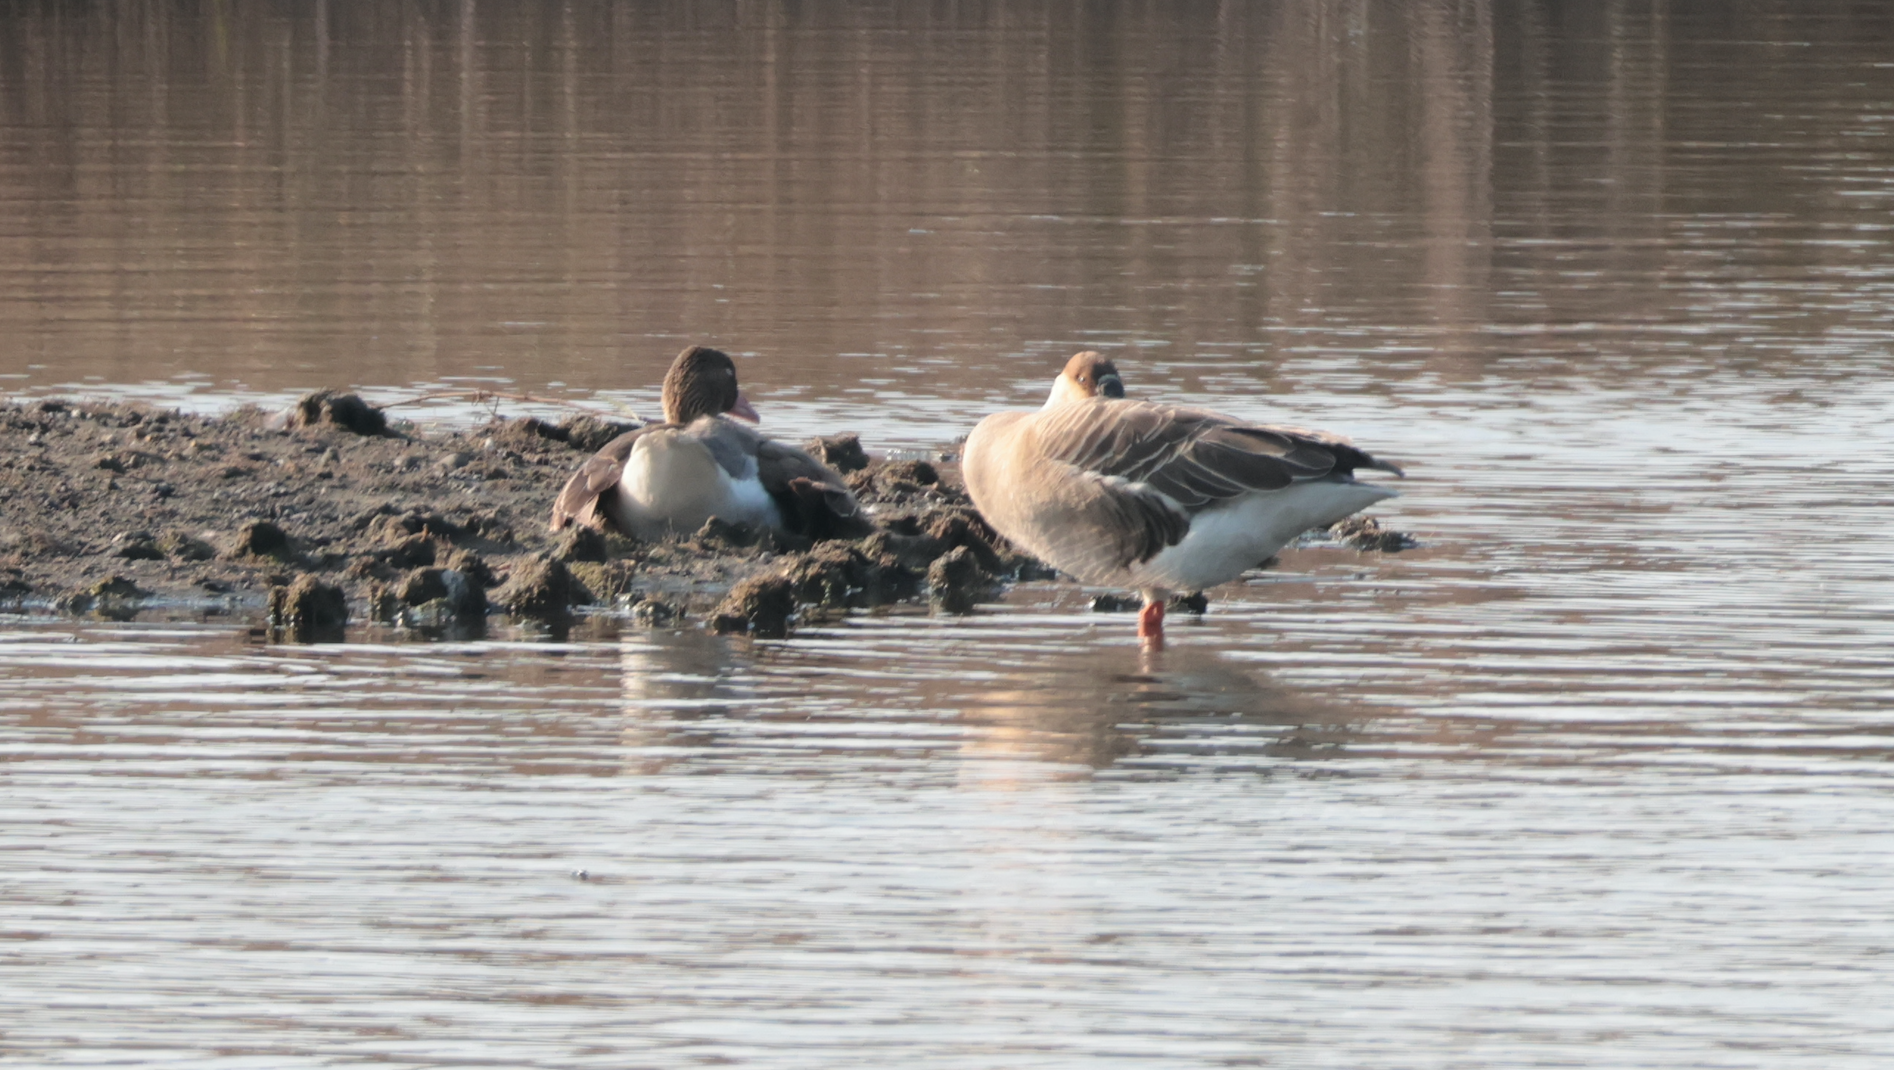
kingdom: Animalia
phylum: Chordata
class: Aves
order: Anseriformes
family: Anatidae
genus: Anser
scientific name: Anser anser
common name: Greylag goose
